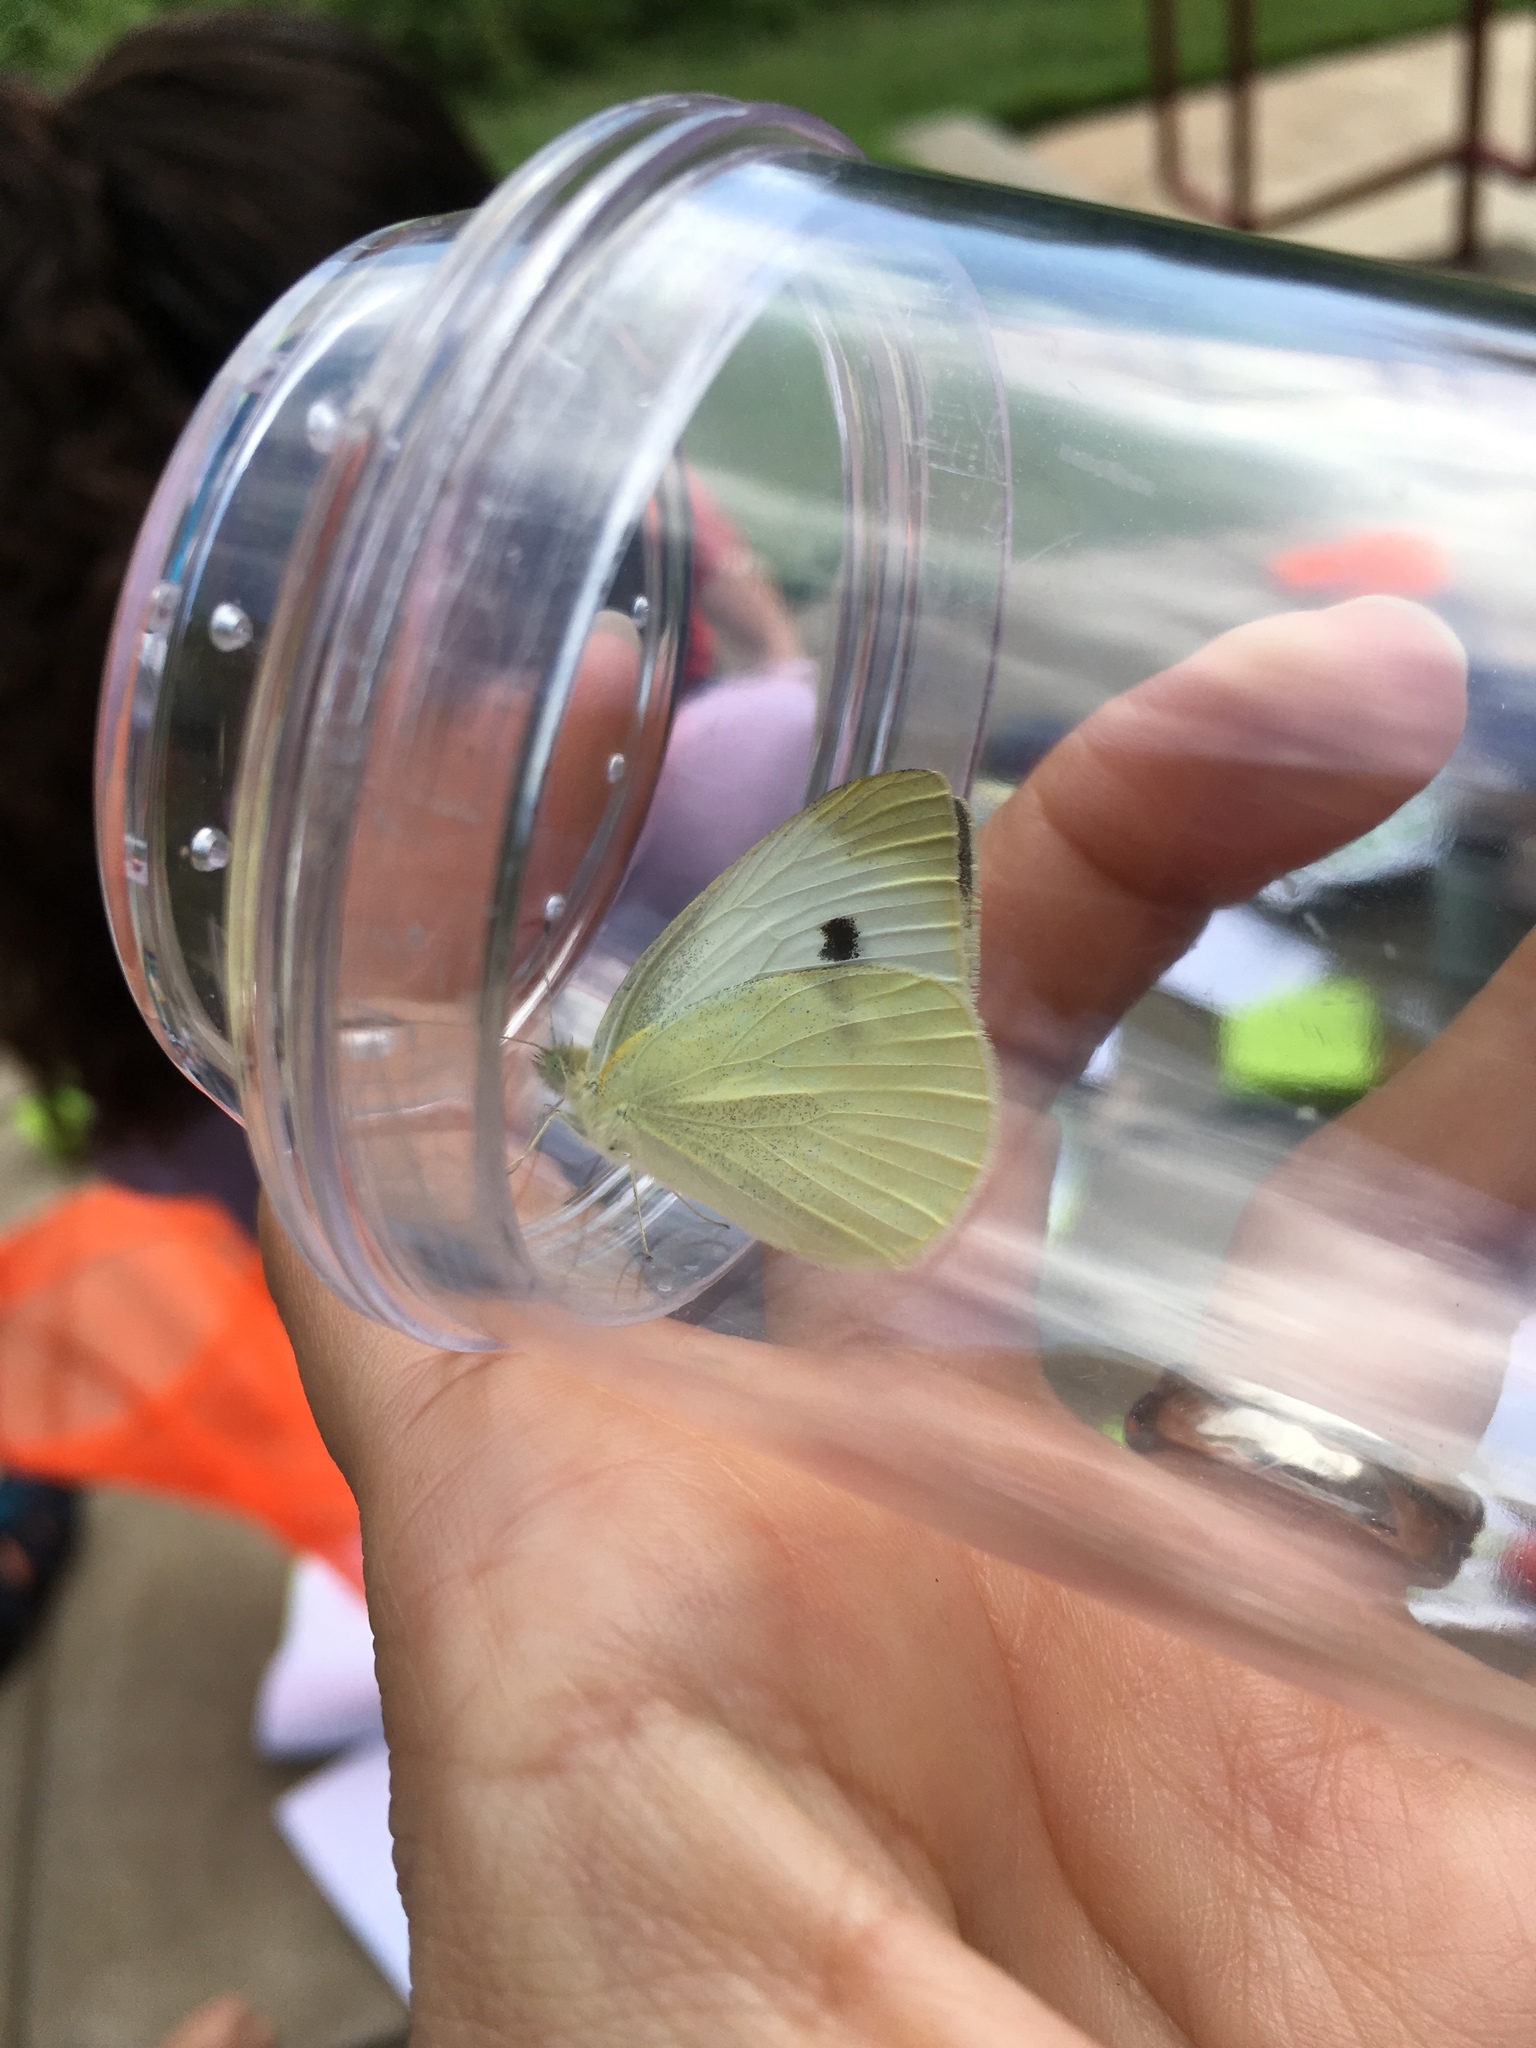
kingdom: Animalia
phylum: Arthropoda
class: Insecta
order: Lepidoptera
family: Pieridae
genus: Pieris
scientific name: Pieris rapae
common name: Small white
